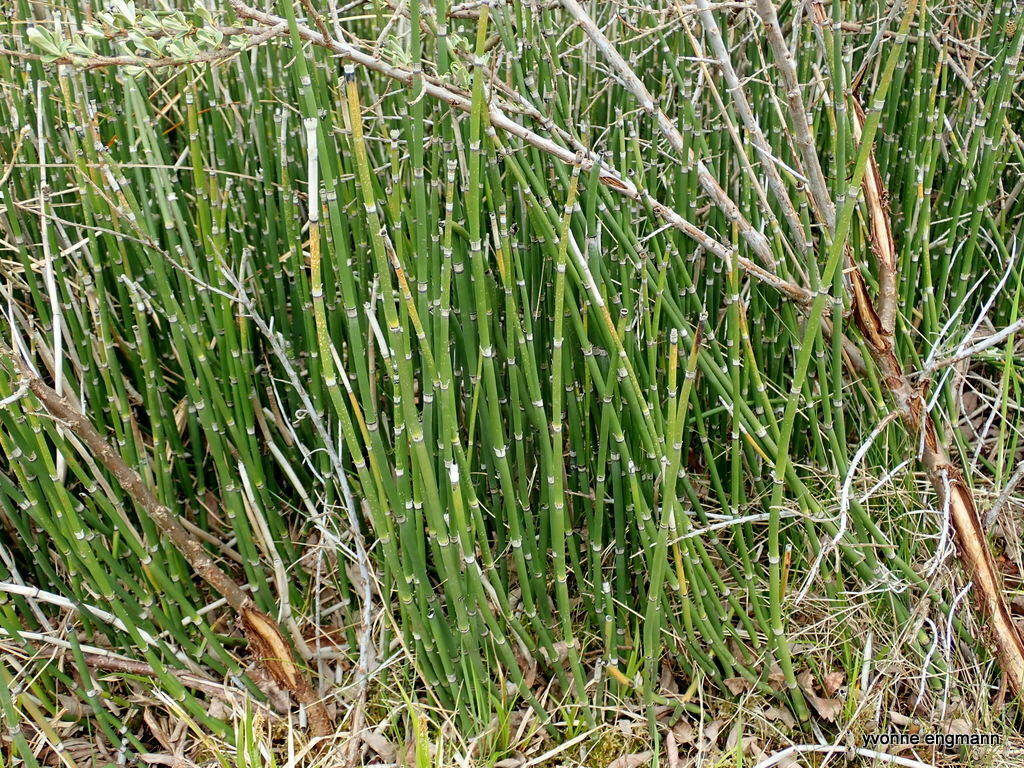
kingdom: Plantae
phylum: Tracheophyta
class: Polypodiopsida
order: Equisetales
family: Equisetaceae
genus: Equisetum
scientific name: Equisetum hyemale
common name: Rough horsetail
